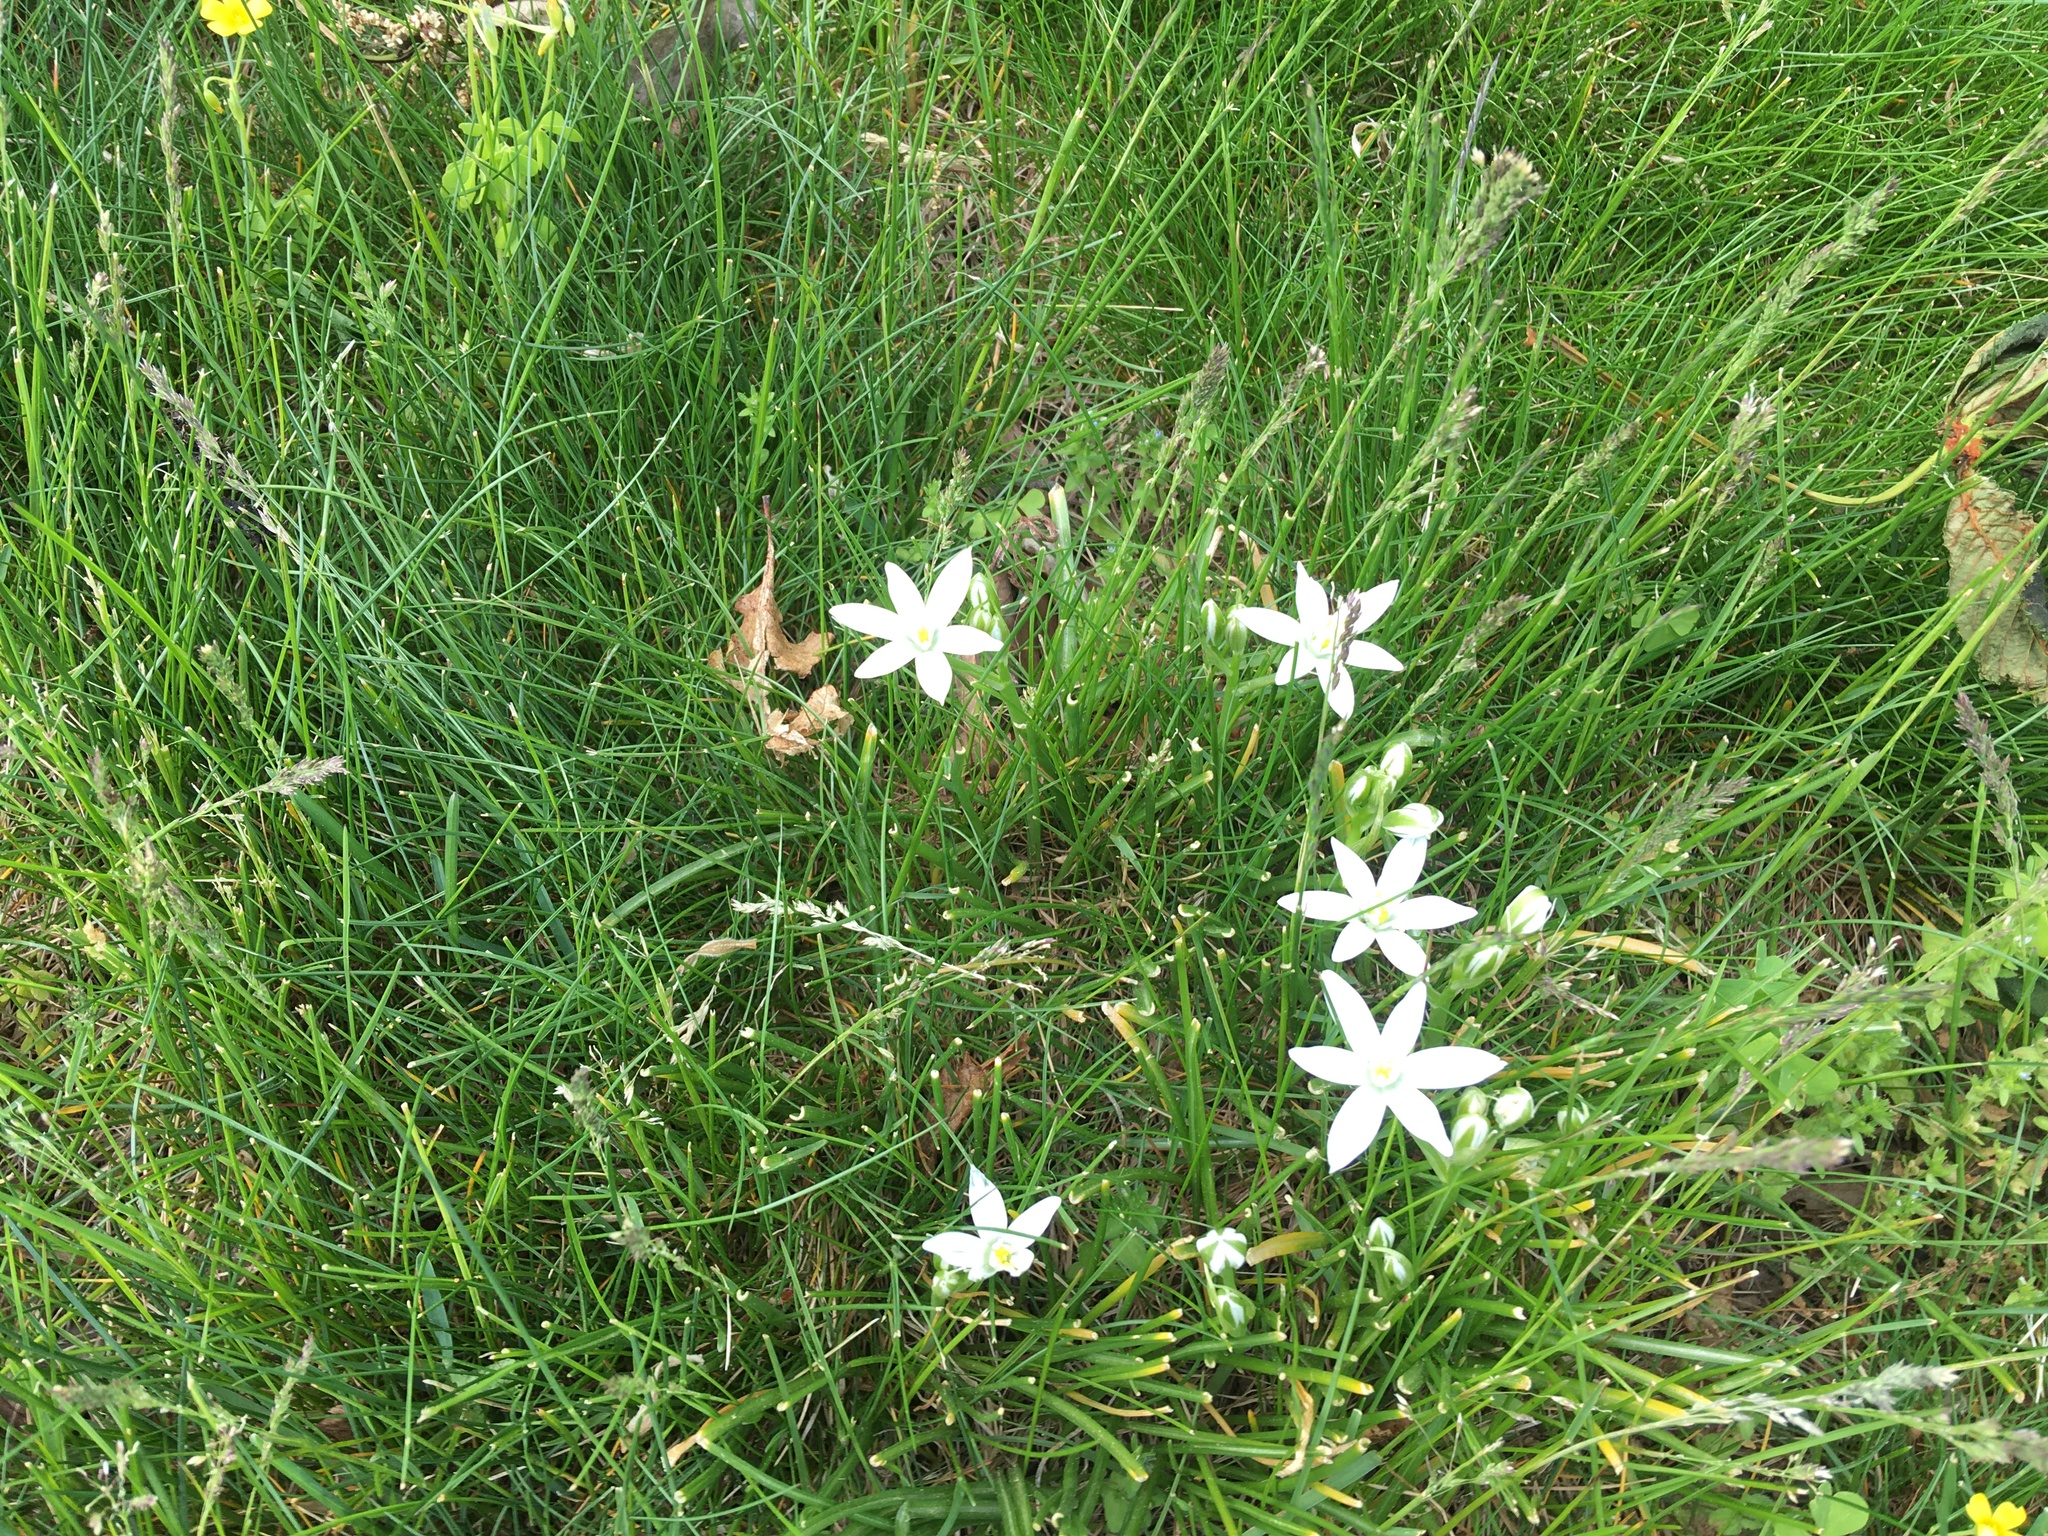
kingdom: Plantae
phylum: Tracheophyta
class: Liliopsida
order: Asparagales
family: Asparagaceae
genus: Ornithogalum
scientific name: Ornithogalum umbellatum
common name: Garden star-of-bethlehem
